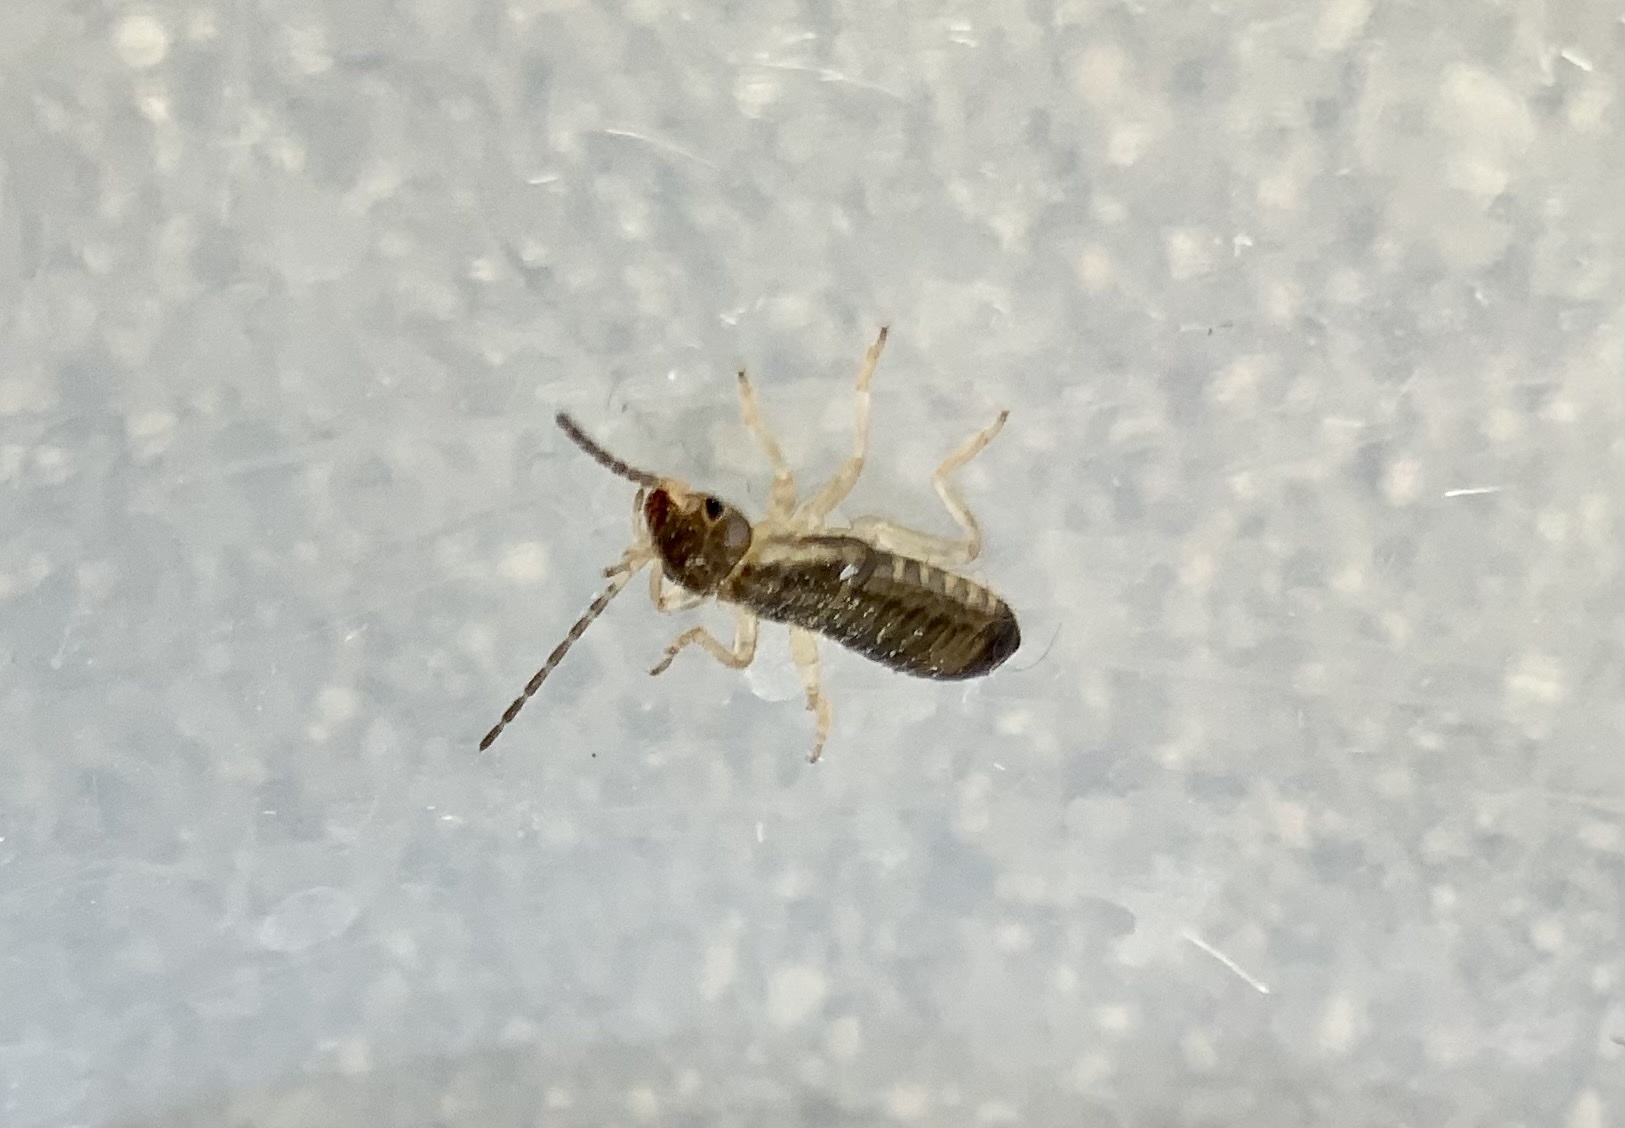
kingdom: Animalia
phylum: Arthropoda
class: Insecta
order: Dermaptera
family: Forficulidae
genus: Forficula
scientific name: Forficula
